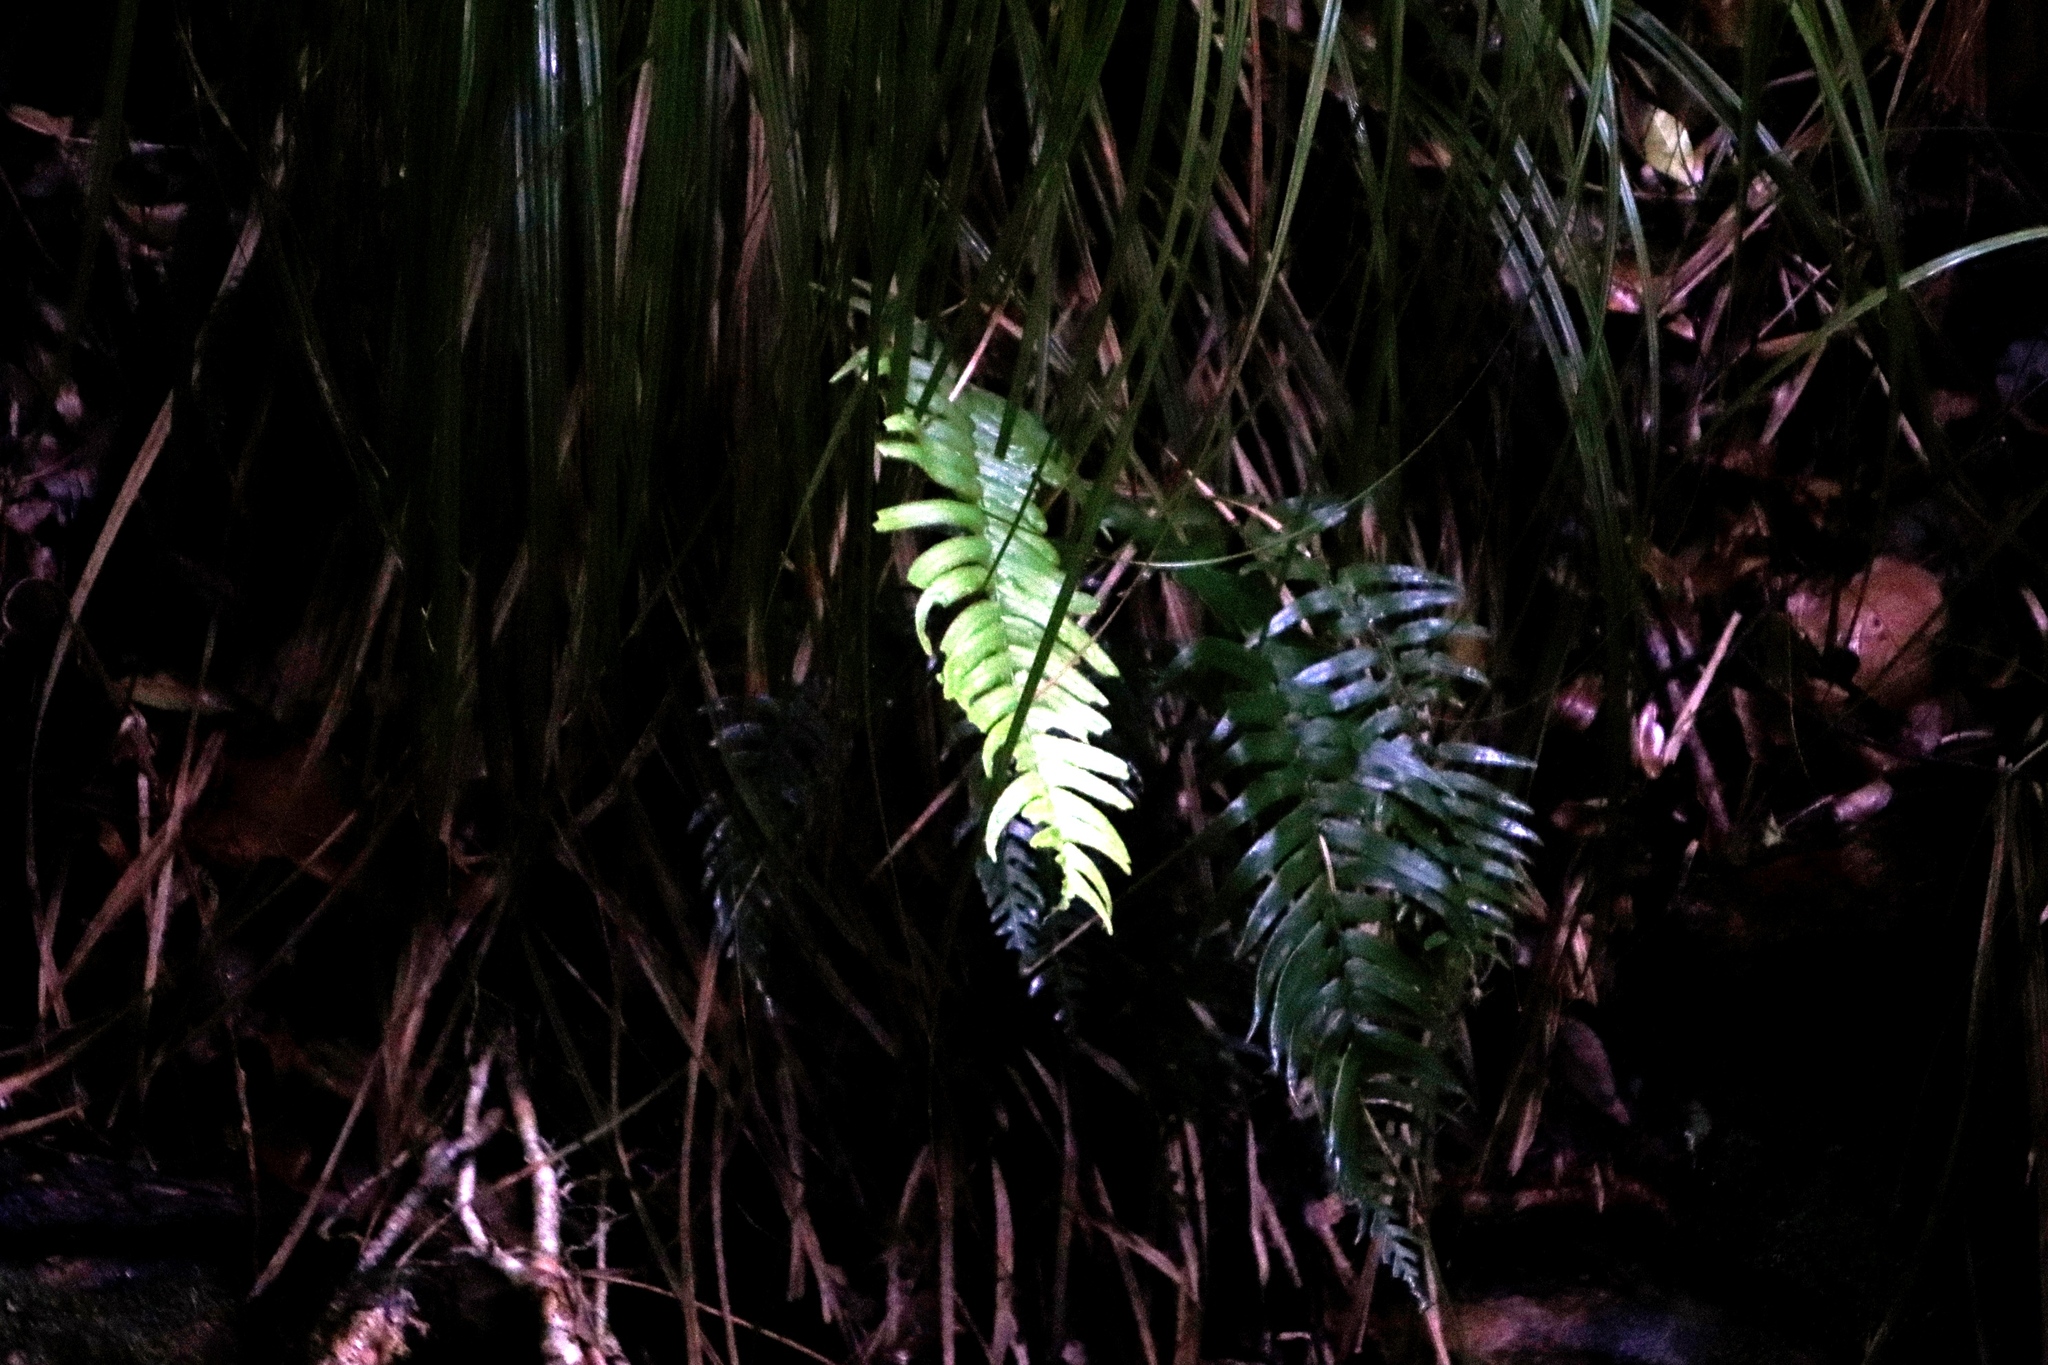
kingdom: Plantae
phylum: Tracheophyta
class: Polypodiopsida
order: Polypodiales
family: Blechnaceae
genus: Lomaridium
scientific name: Lomaridium attenuatum
